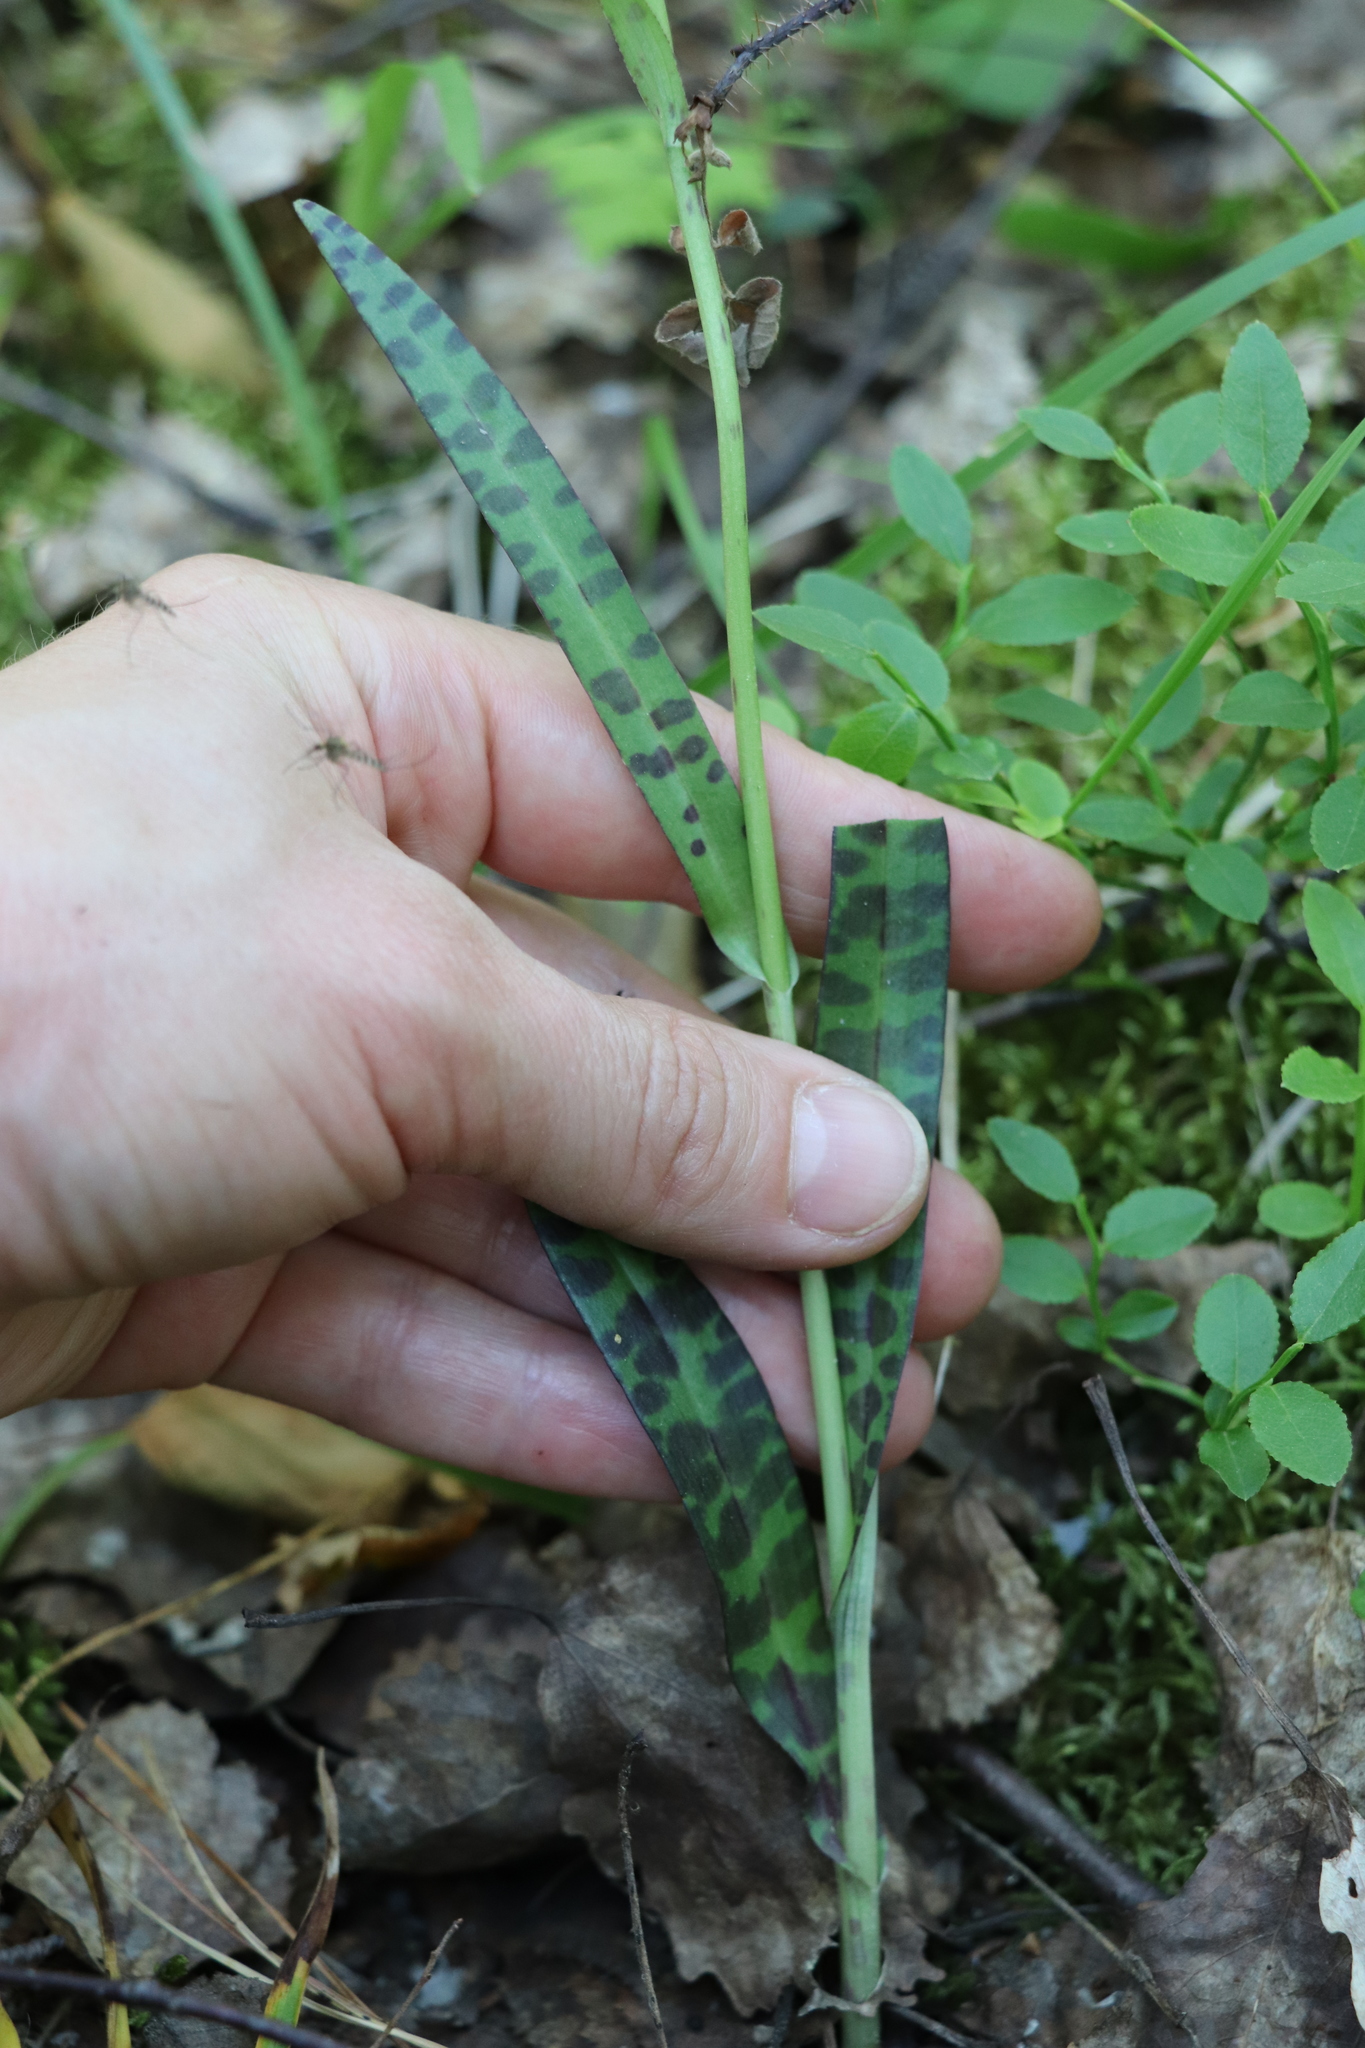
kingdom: Plantae
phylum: Tracheophyta
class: Liliopsida
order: Asparagales
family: Orchidaceae
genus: Dactylorhiza
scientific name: Dactylorhiza maculata
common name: Heath spotted-orchid
